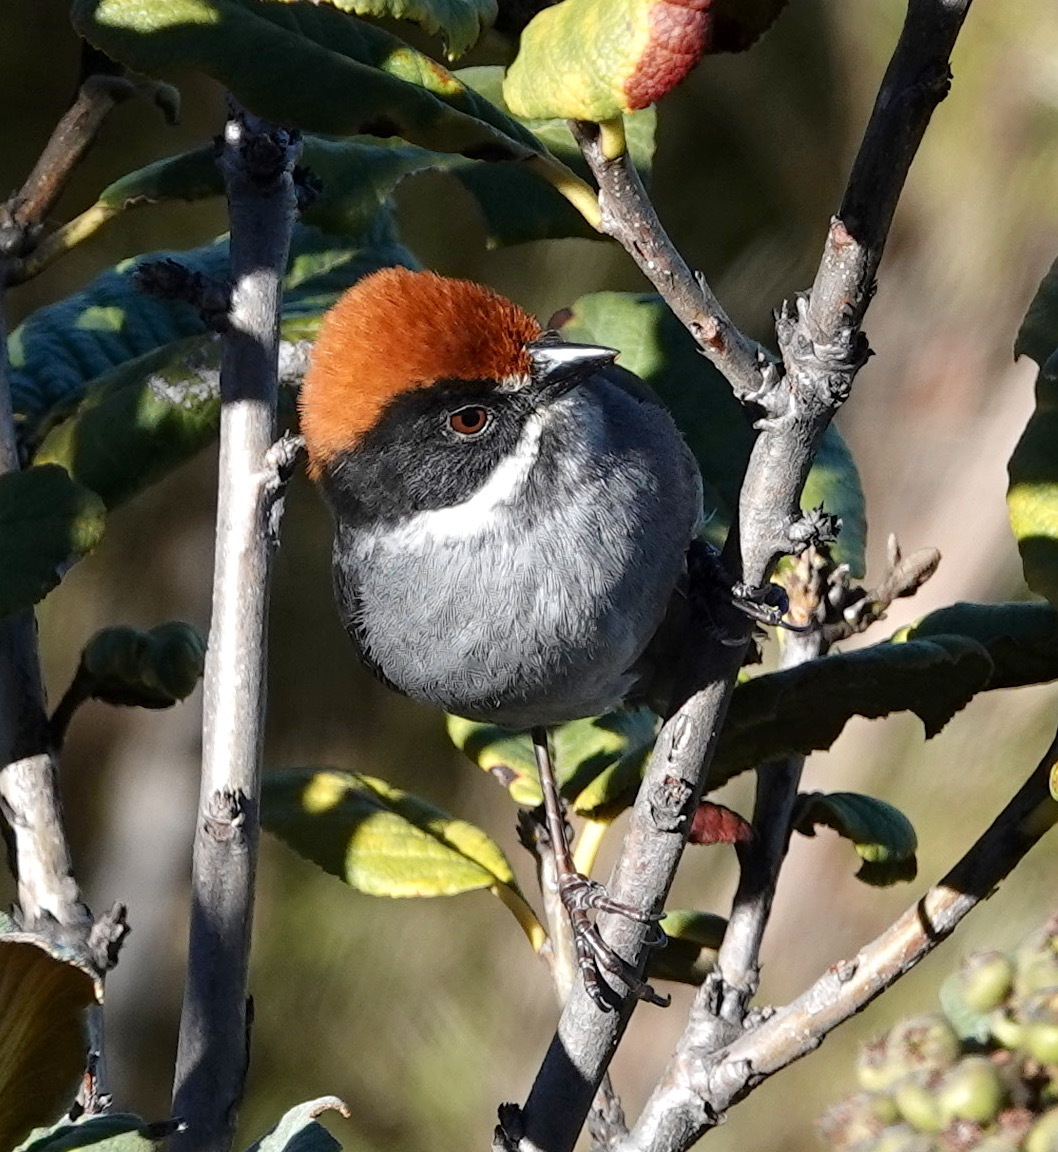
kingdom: Animalia
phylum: Chordata
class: Aves
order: Passeriformes
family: Passerellidae
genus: Atlapetes
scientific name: Atlapetes schistaceus
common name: Slaty brushfinch
